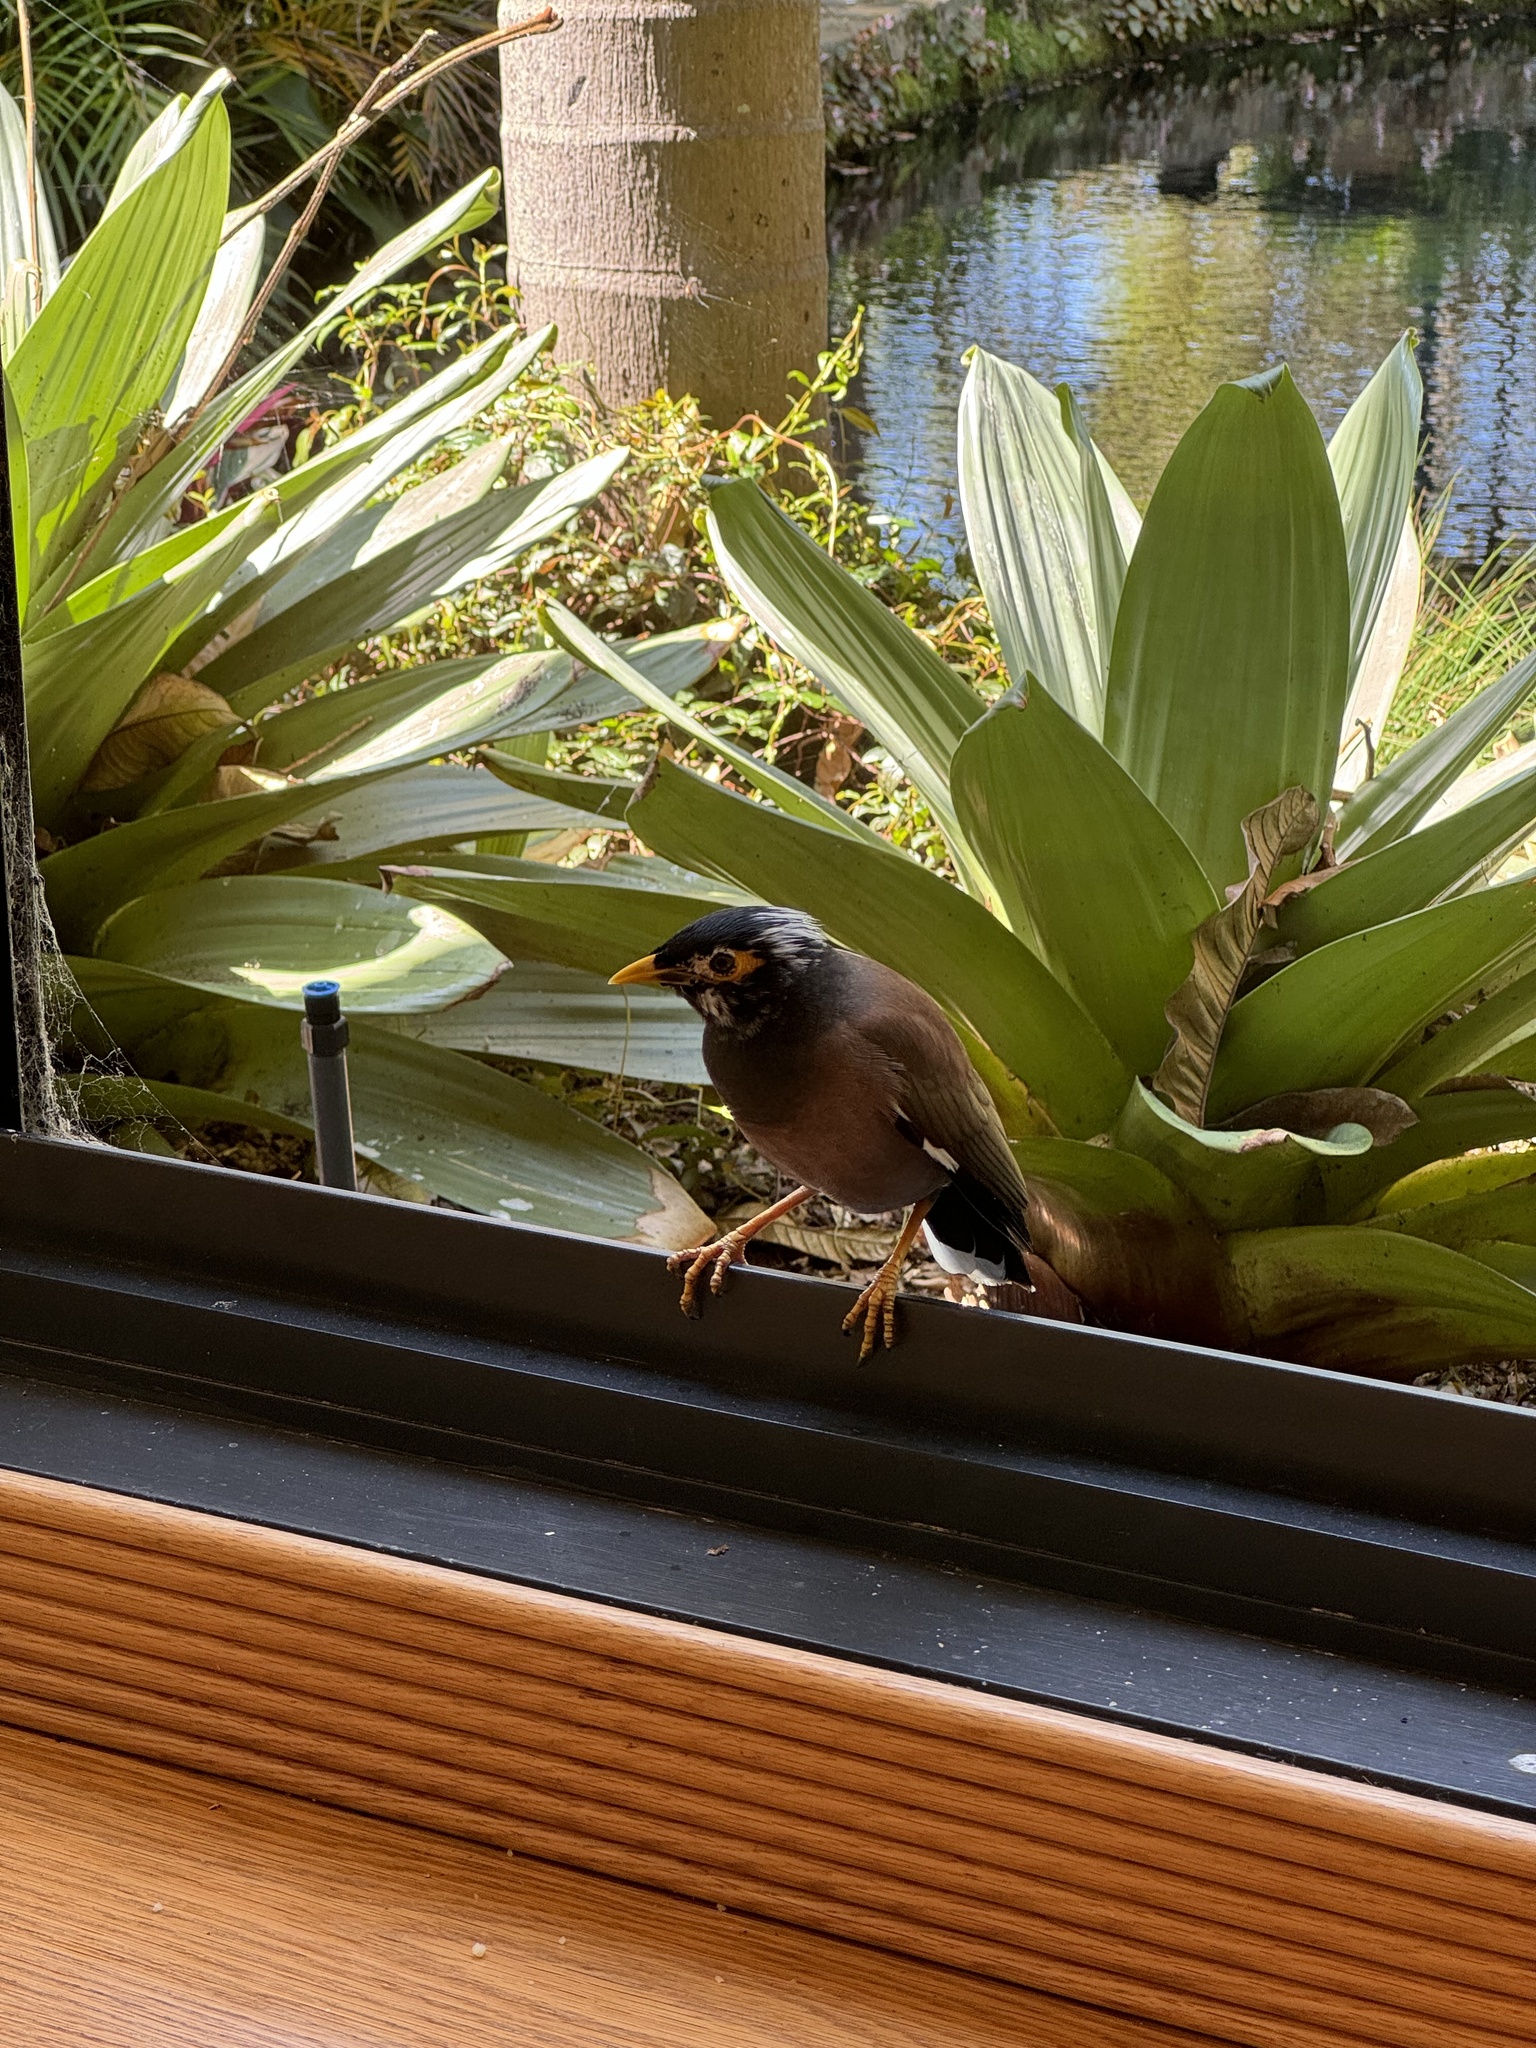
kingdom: Animalia
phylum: Chordata
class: Aves
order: Passeriformes
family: Sturnidae
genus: Acridotheres
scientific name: Acridotheres tristis
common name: Common myna
